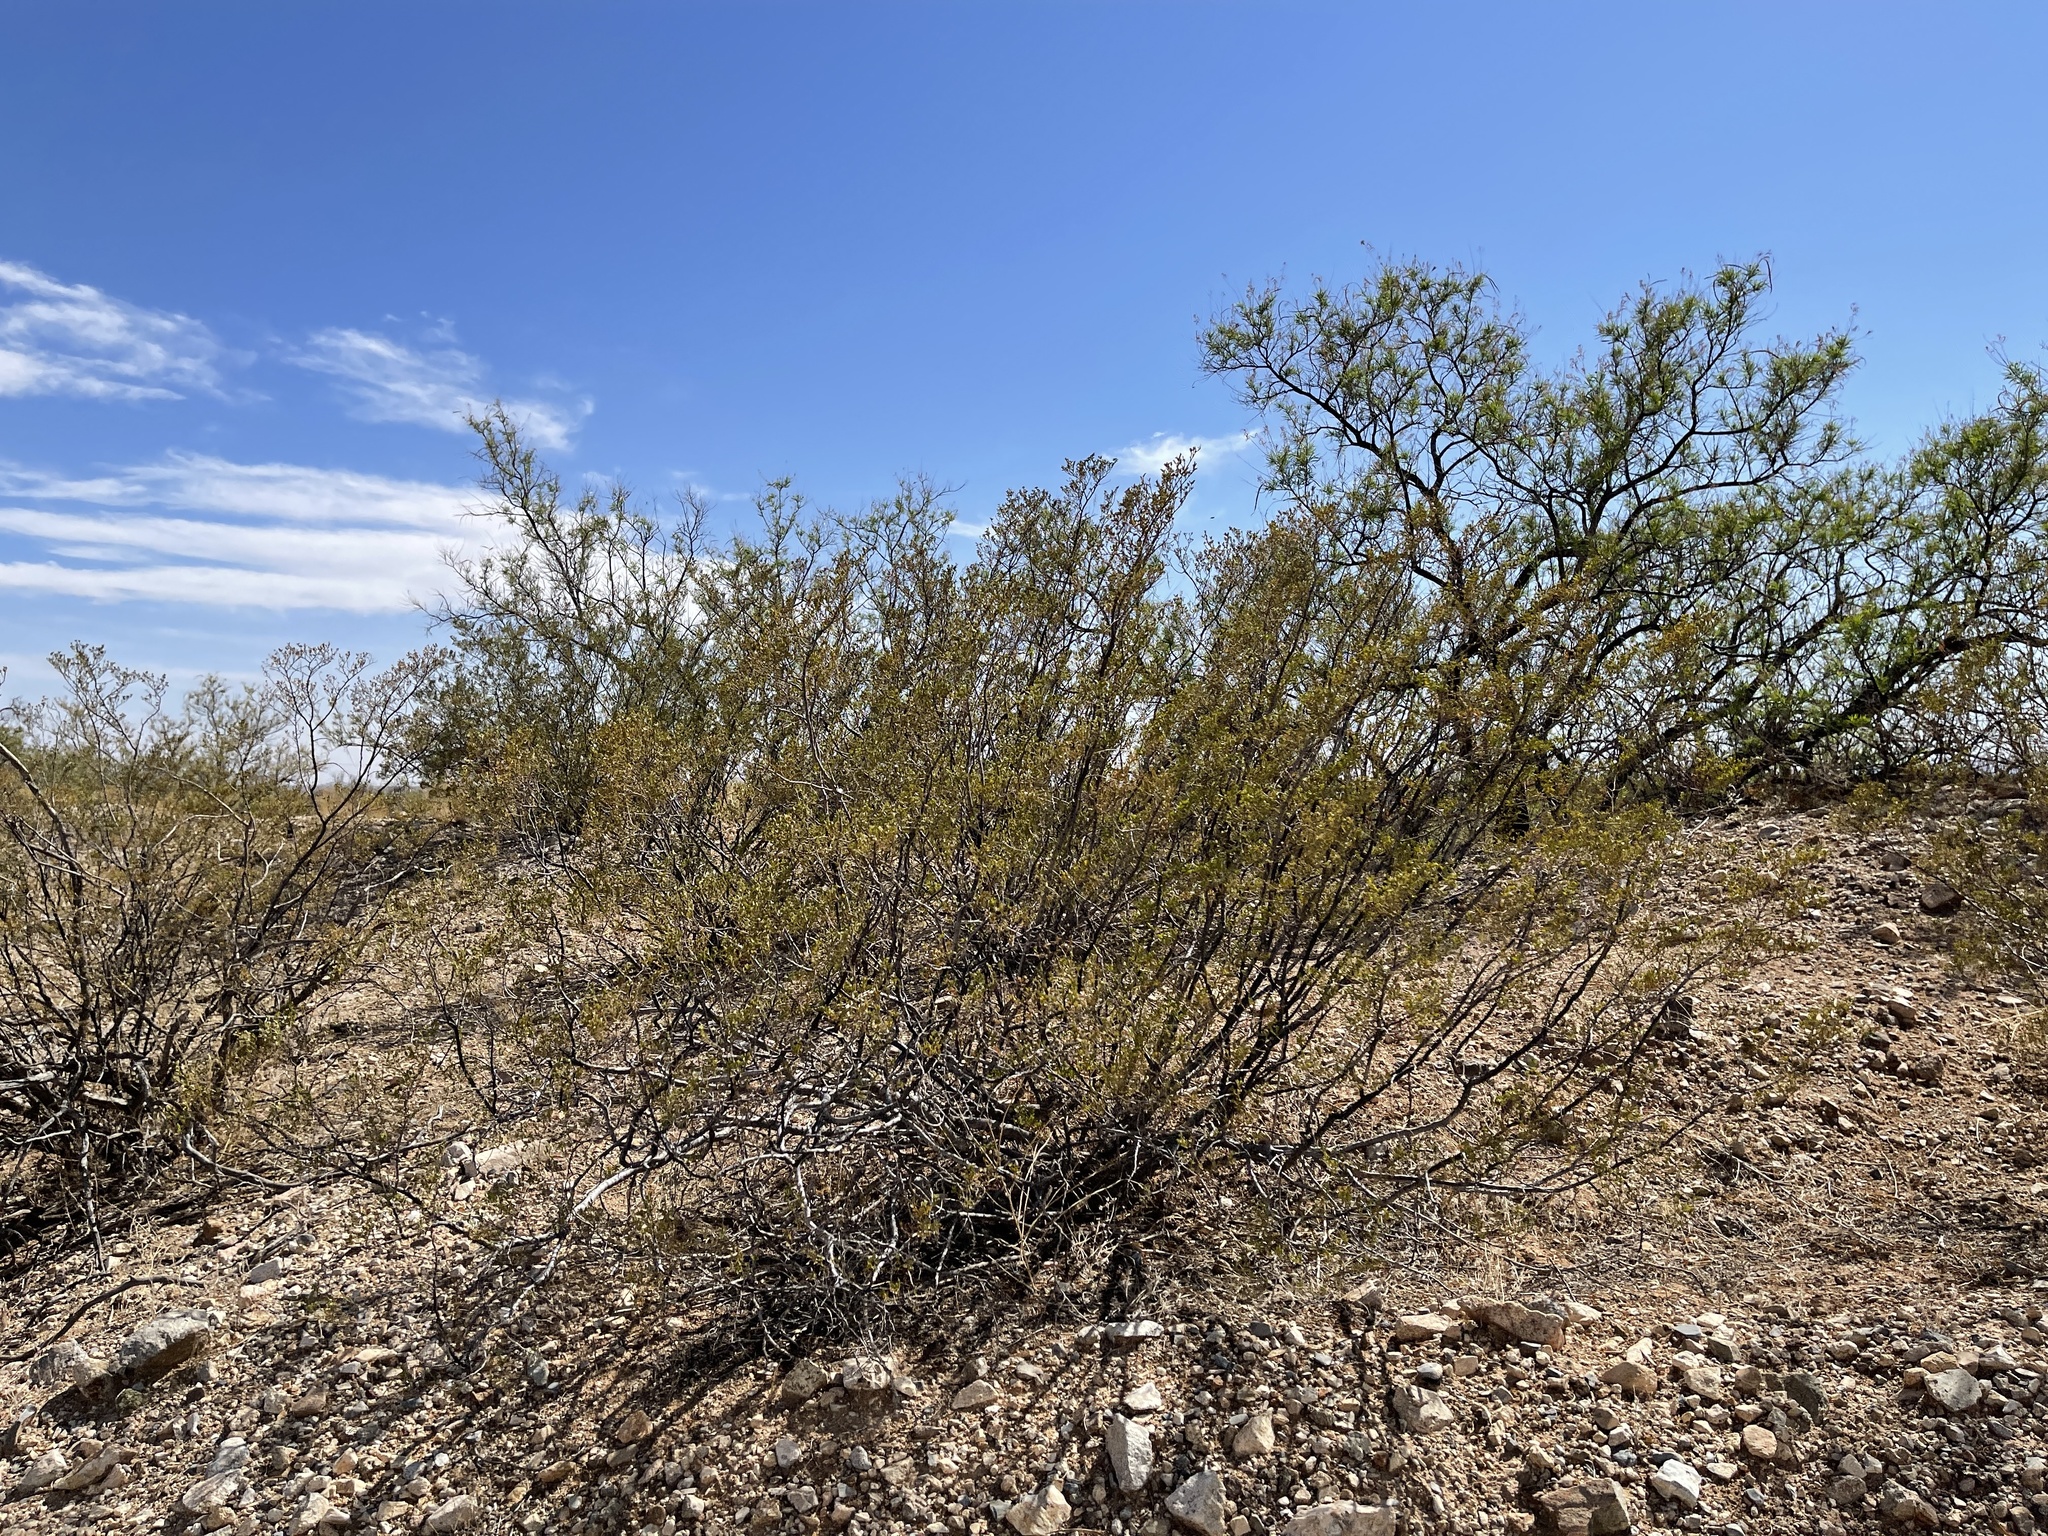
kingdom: Plantae
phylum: Tracheophyta
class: Magnoliopsida
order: Zygophyllales
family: Zygophyllaceae
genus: Larrea
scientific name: Larrea tridentata
